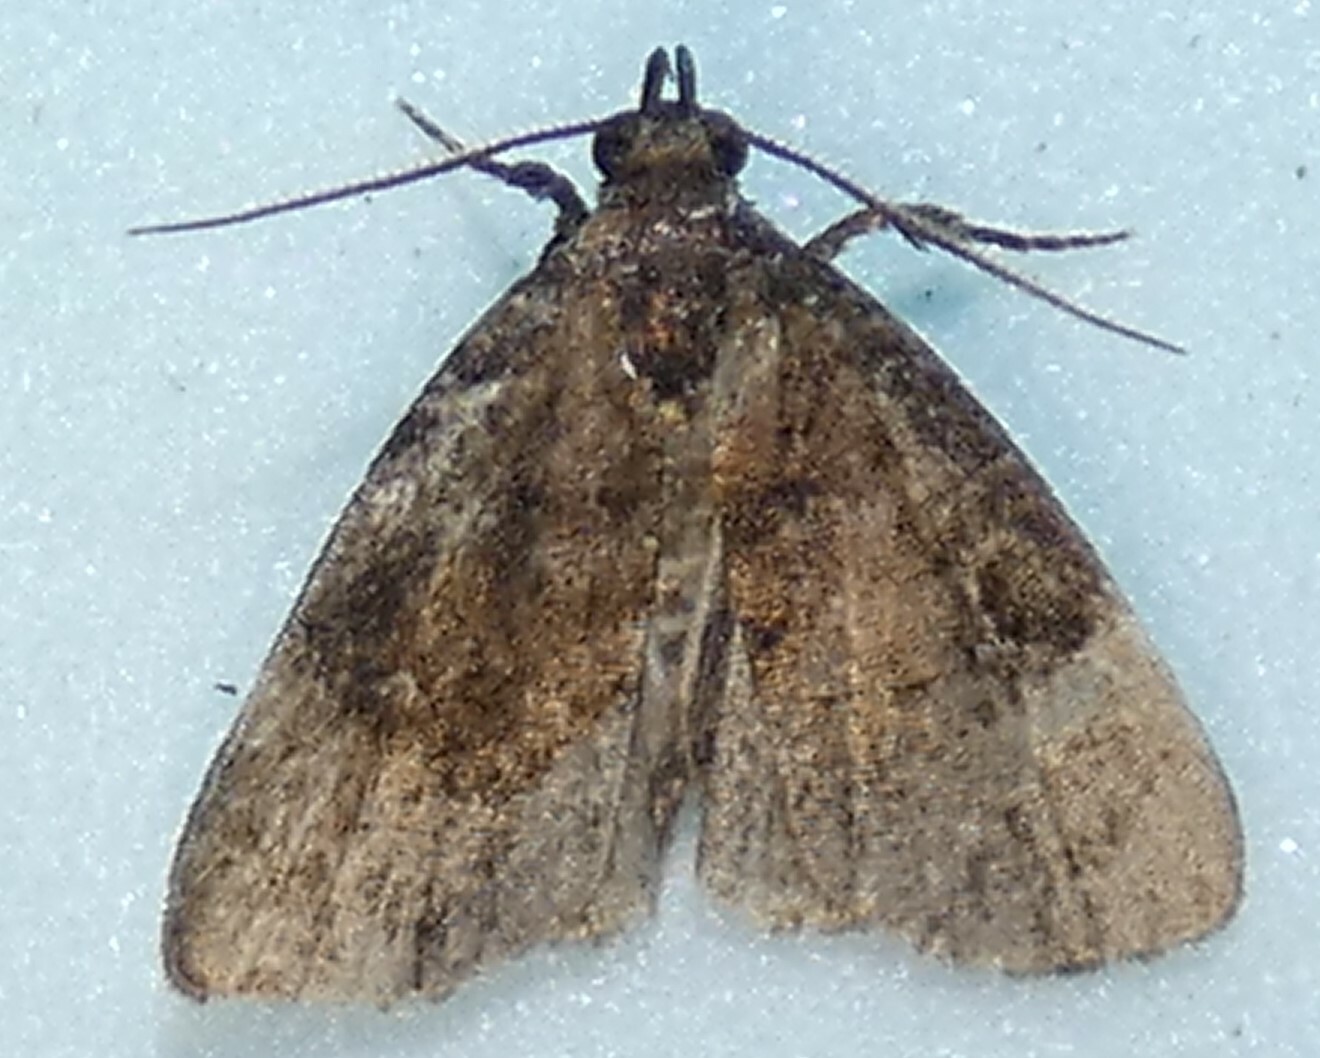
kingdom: Animalia
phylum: Arthropoda
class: Insecta
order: Lepidoptera
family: Erebidae
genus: Idia
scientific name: Idia rotundalis
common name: Rotund idia moth
